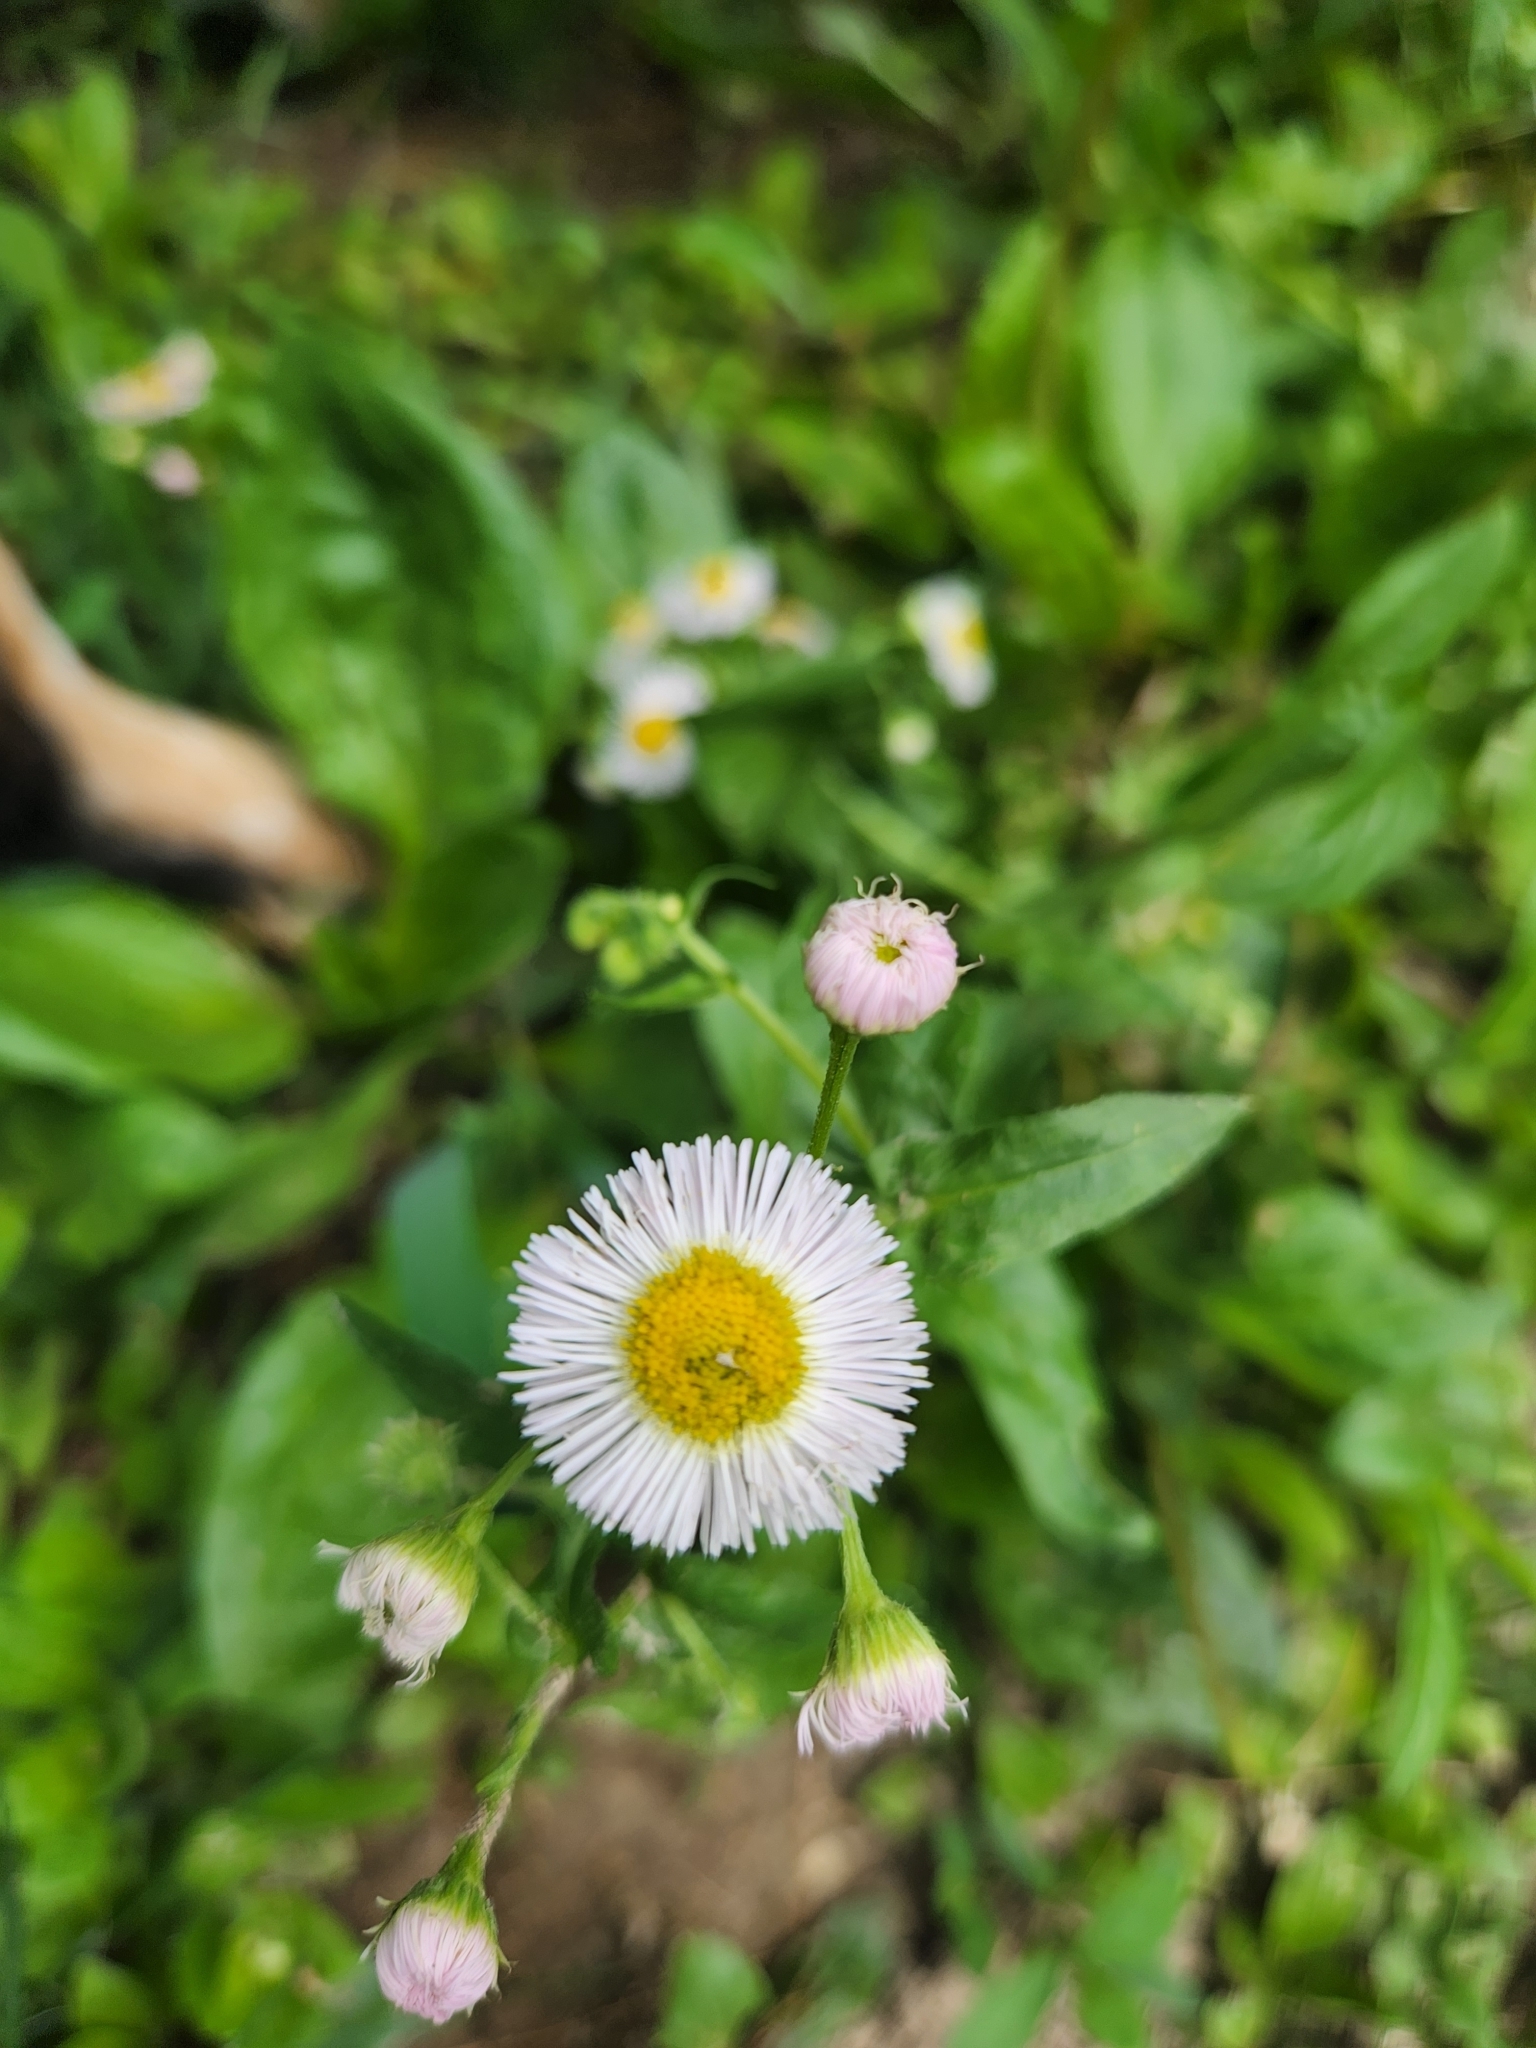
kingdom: Plantae
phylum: Tracheophyta
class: Magnoliopsida
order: Asterales
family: Asteraceae
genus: Erigeron
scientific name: Erigeron philadelphicus
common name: Robin's-plantain
